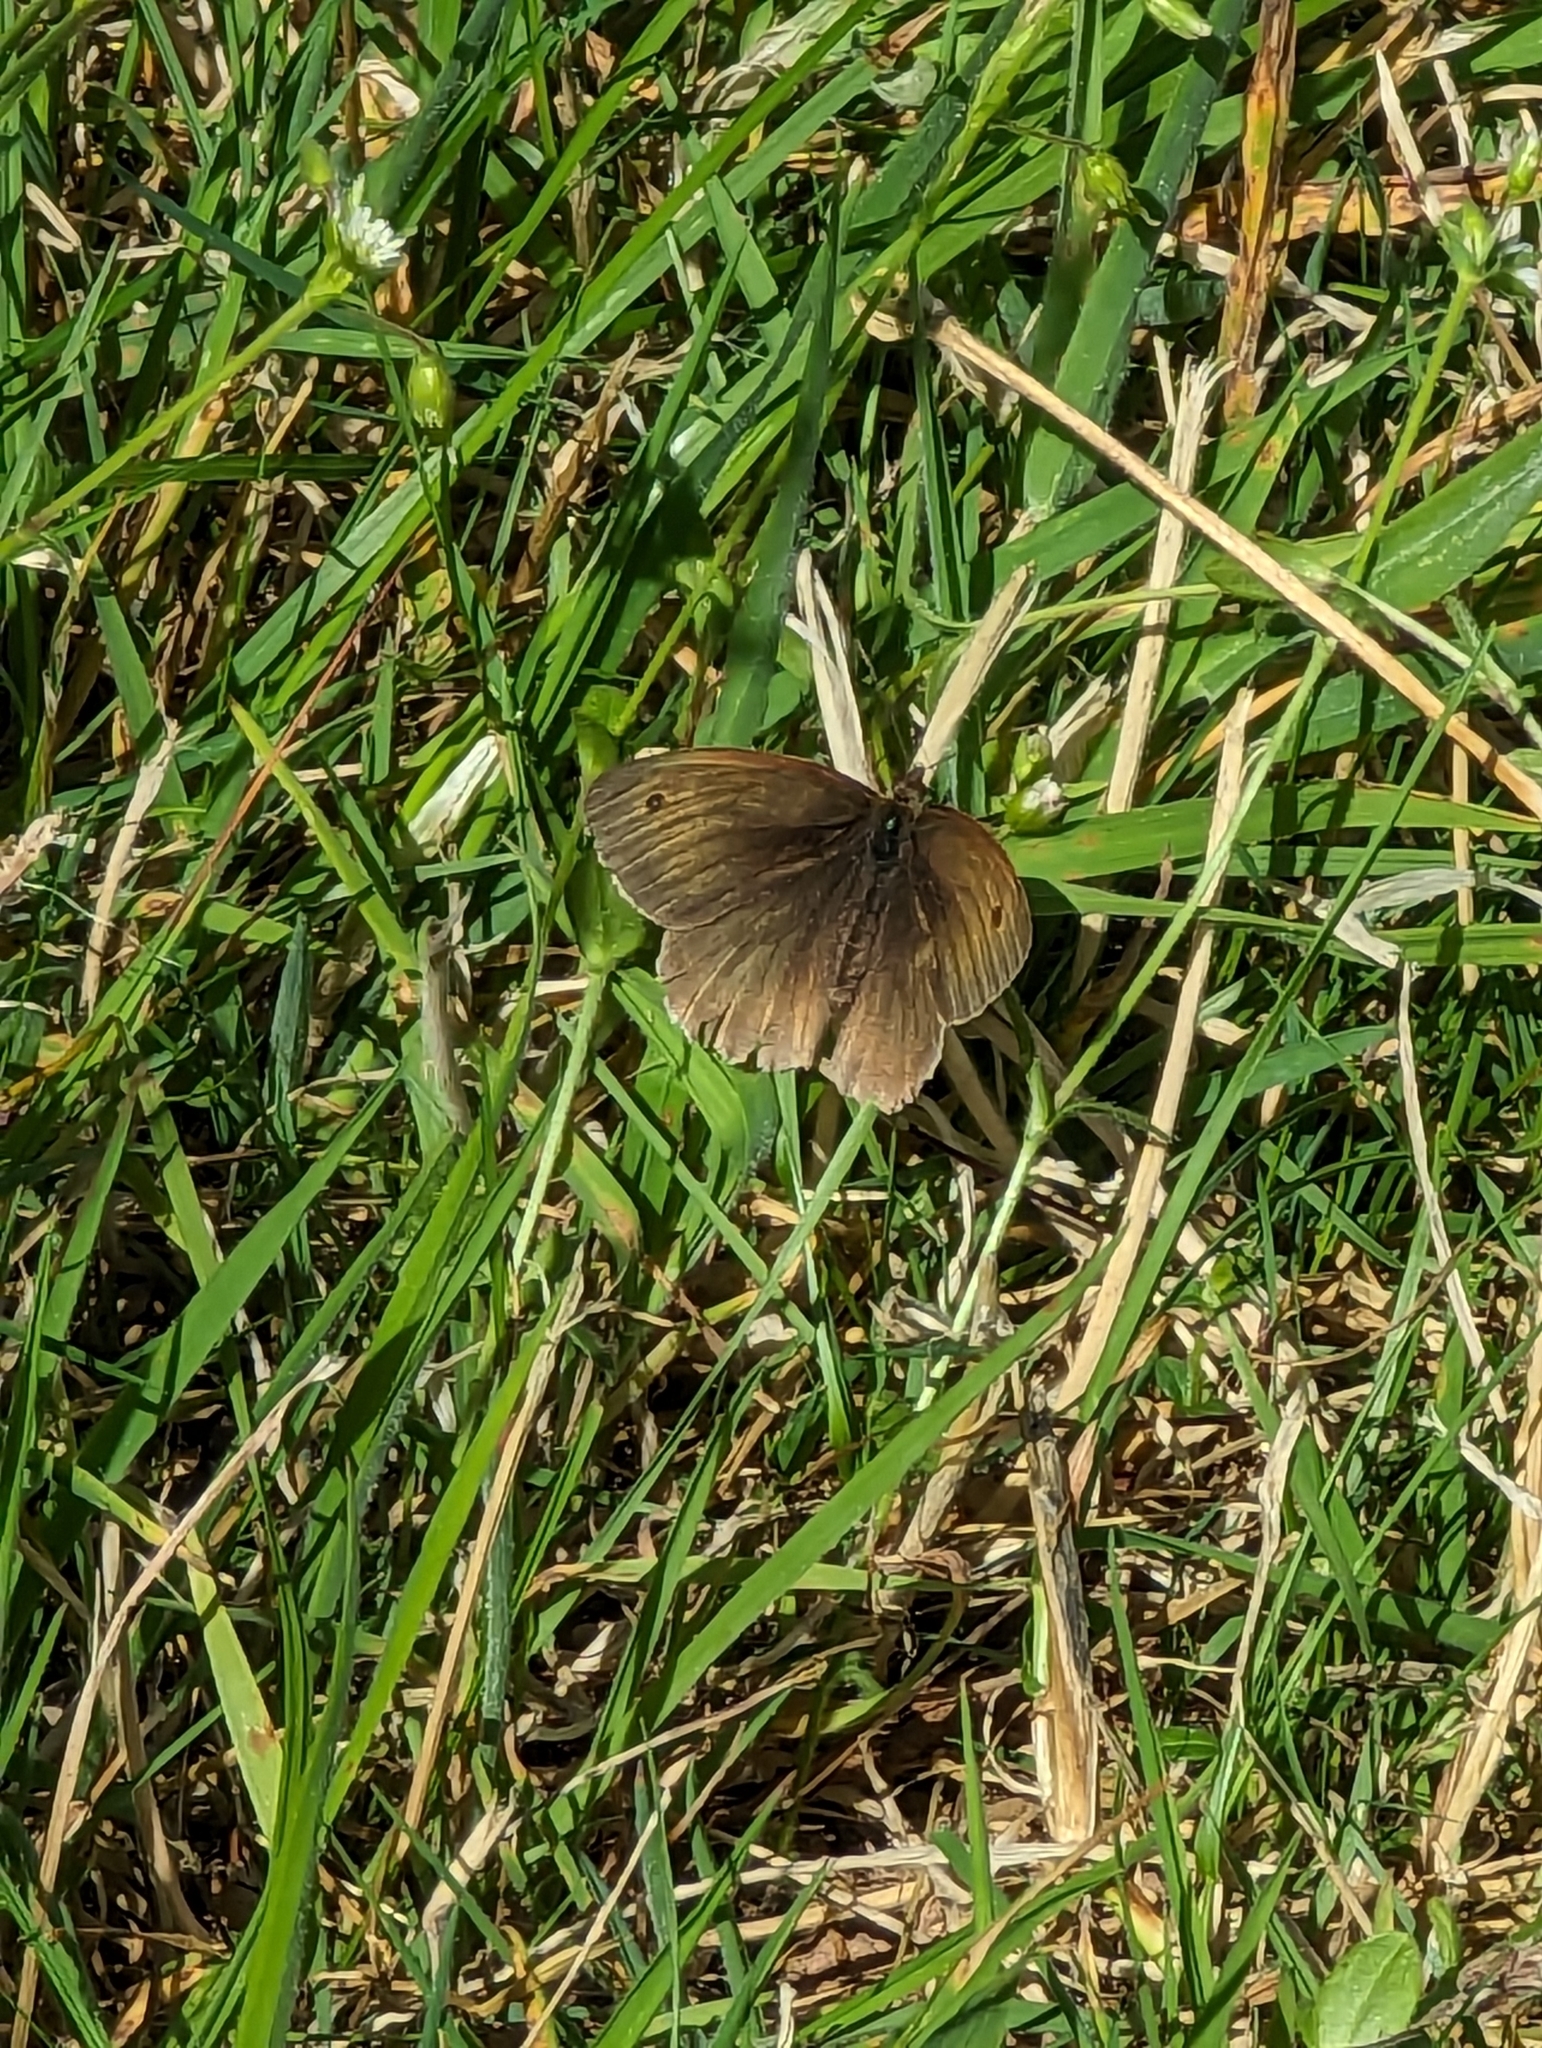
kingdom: Animalia
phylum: Arthropoda
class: Insecta
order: Lepidoptera
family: Nymphalidae
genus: Maniola
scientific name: Maniola jurtina
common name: Meadow brown
